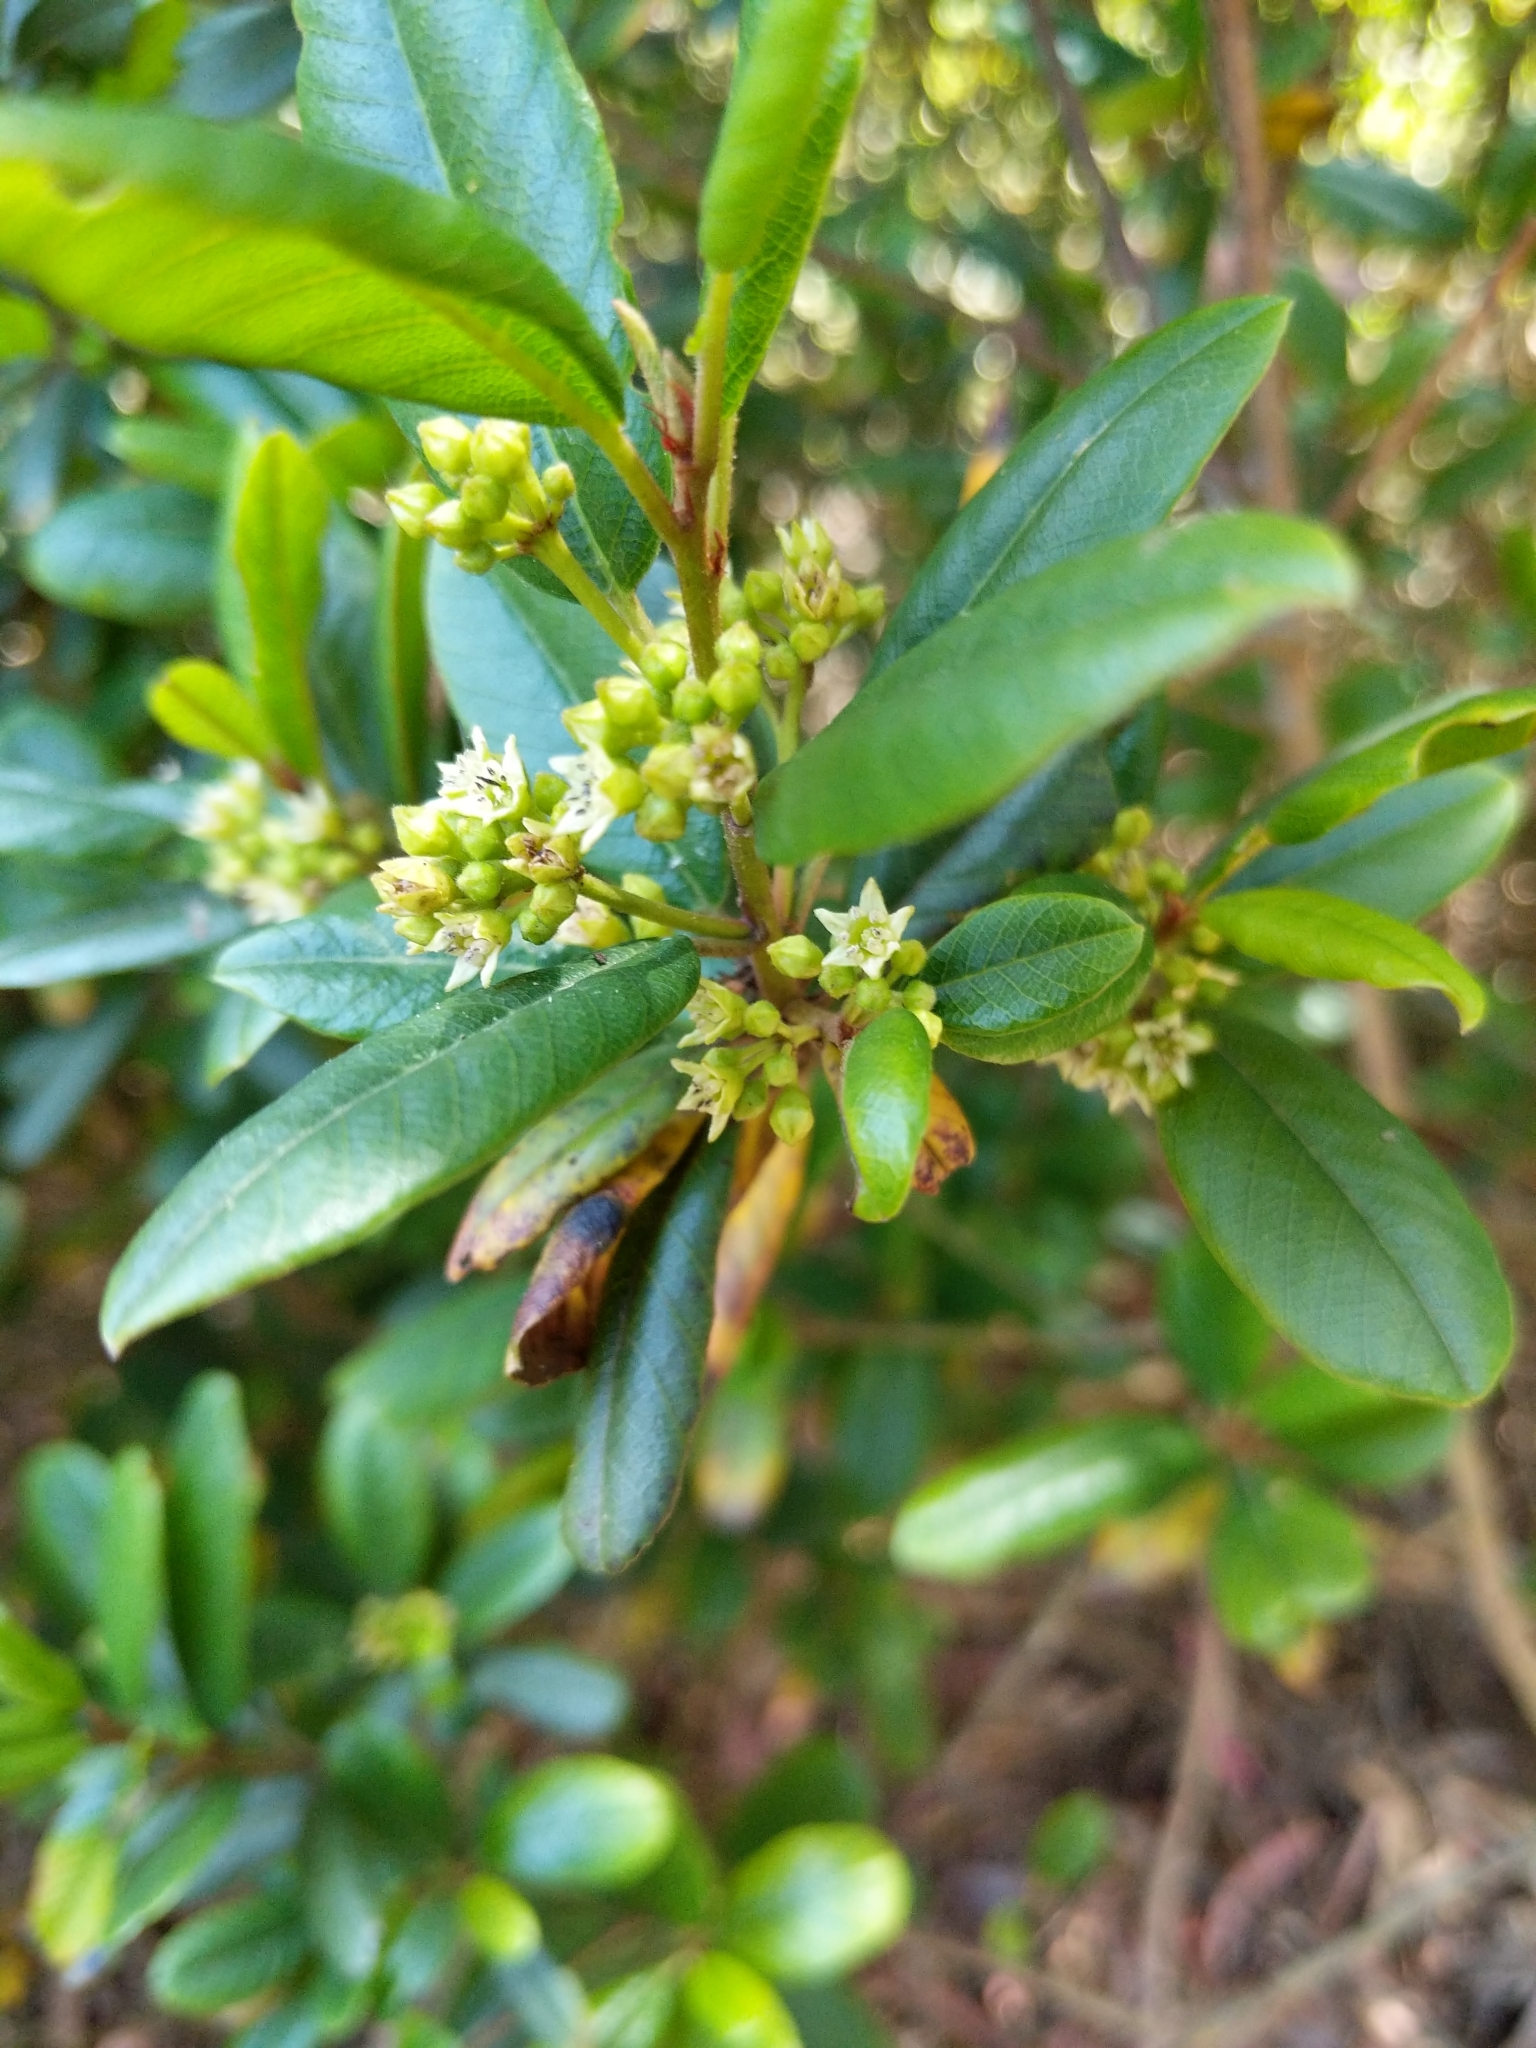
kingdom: Plantae
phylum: Tracheophyta
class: Magnoliopsida
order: Rosales
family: Rhamnaceae
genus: Frangula
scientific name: Frangula californica
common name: California buckthorn
